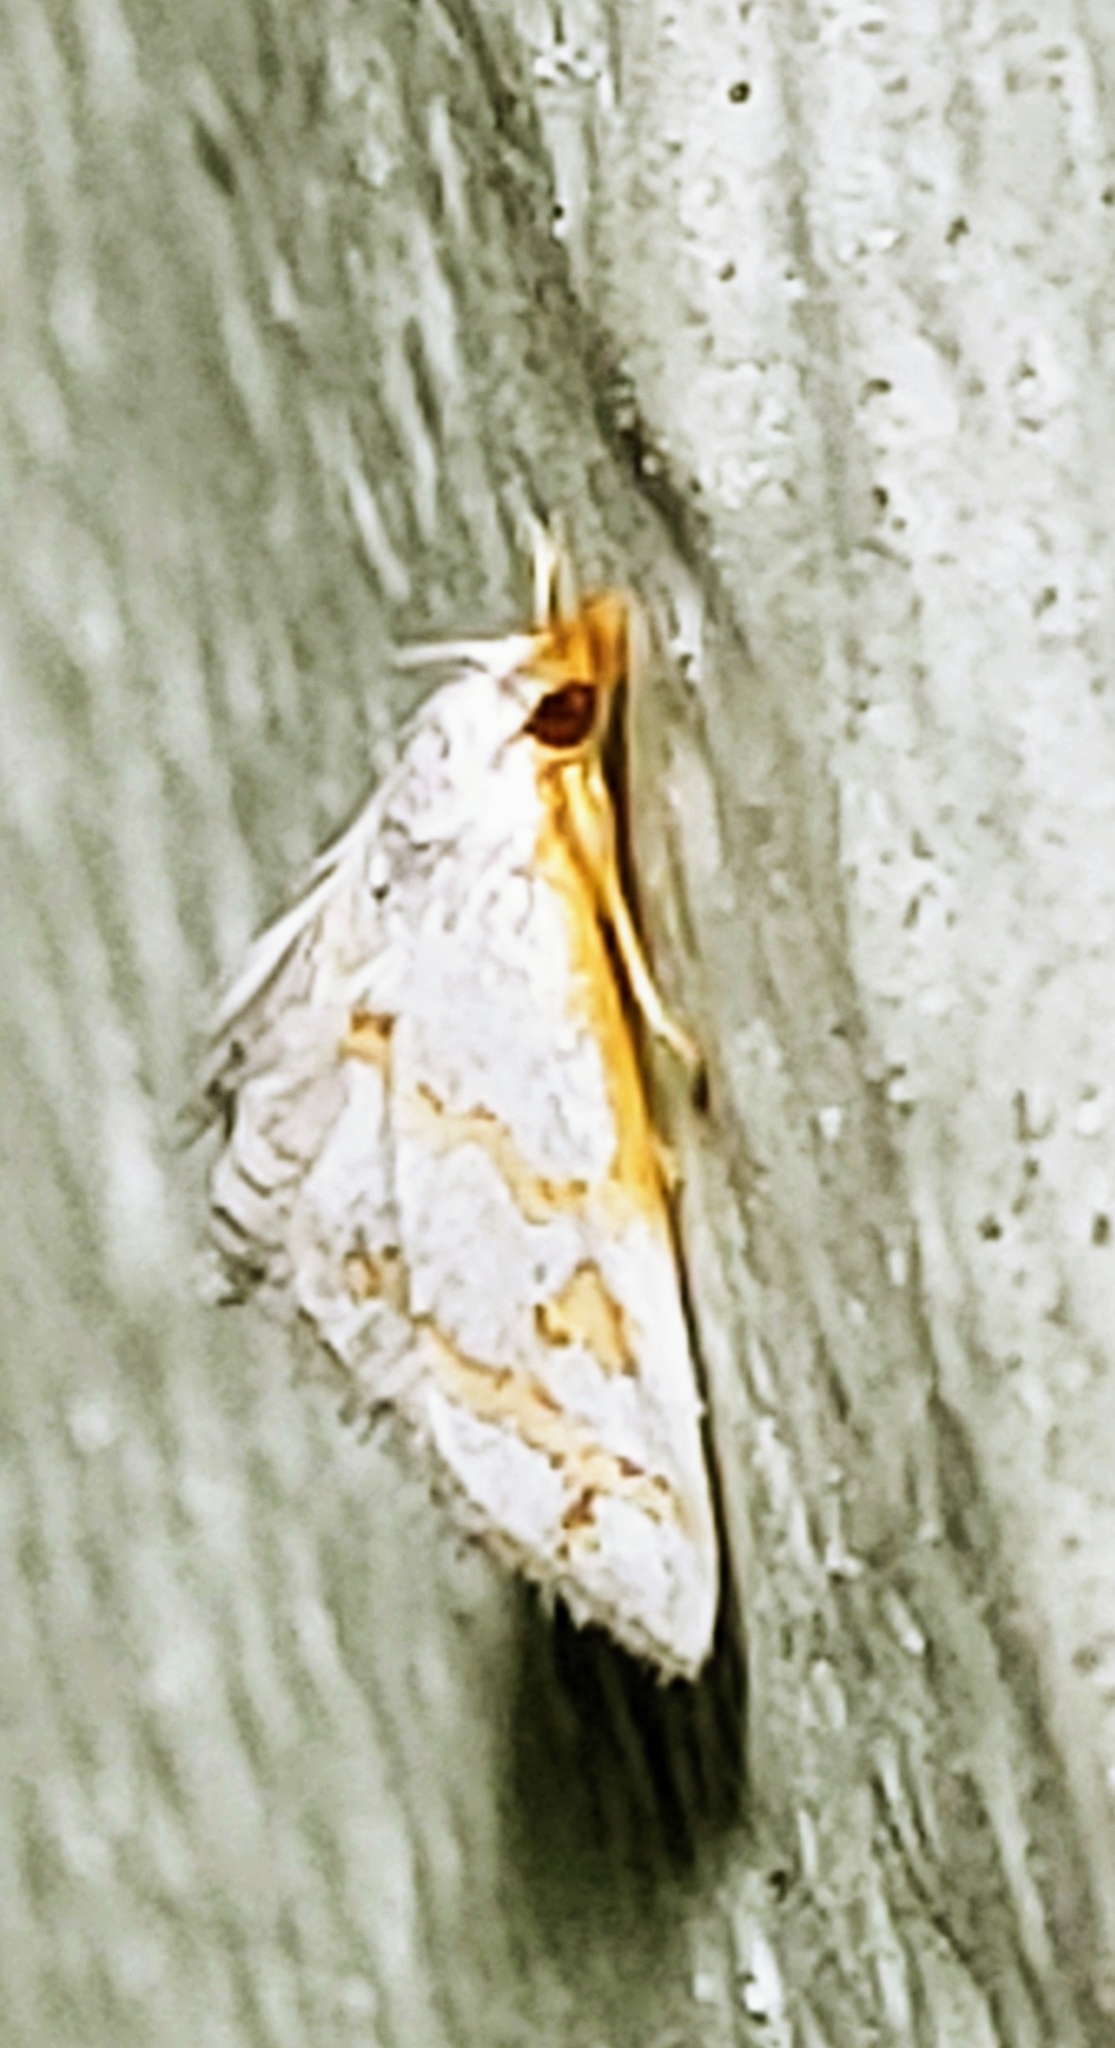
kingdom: Animalia
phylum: Arthropoda
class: Insecta
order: Lepidoptera
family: Crambidae
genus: Leptosteges
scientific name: Leptosteges
